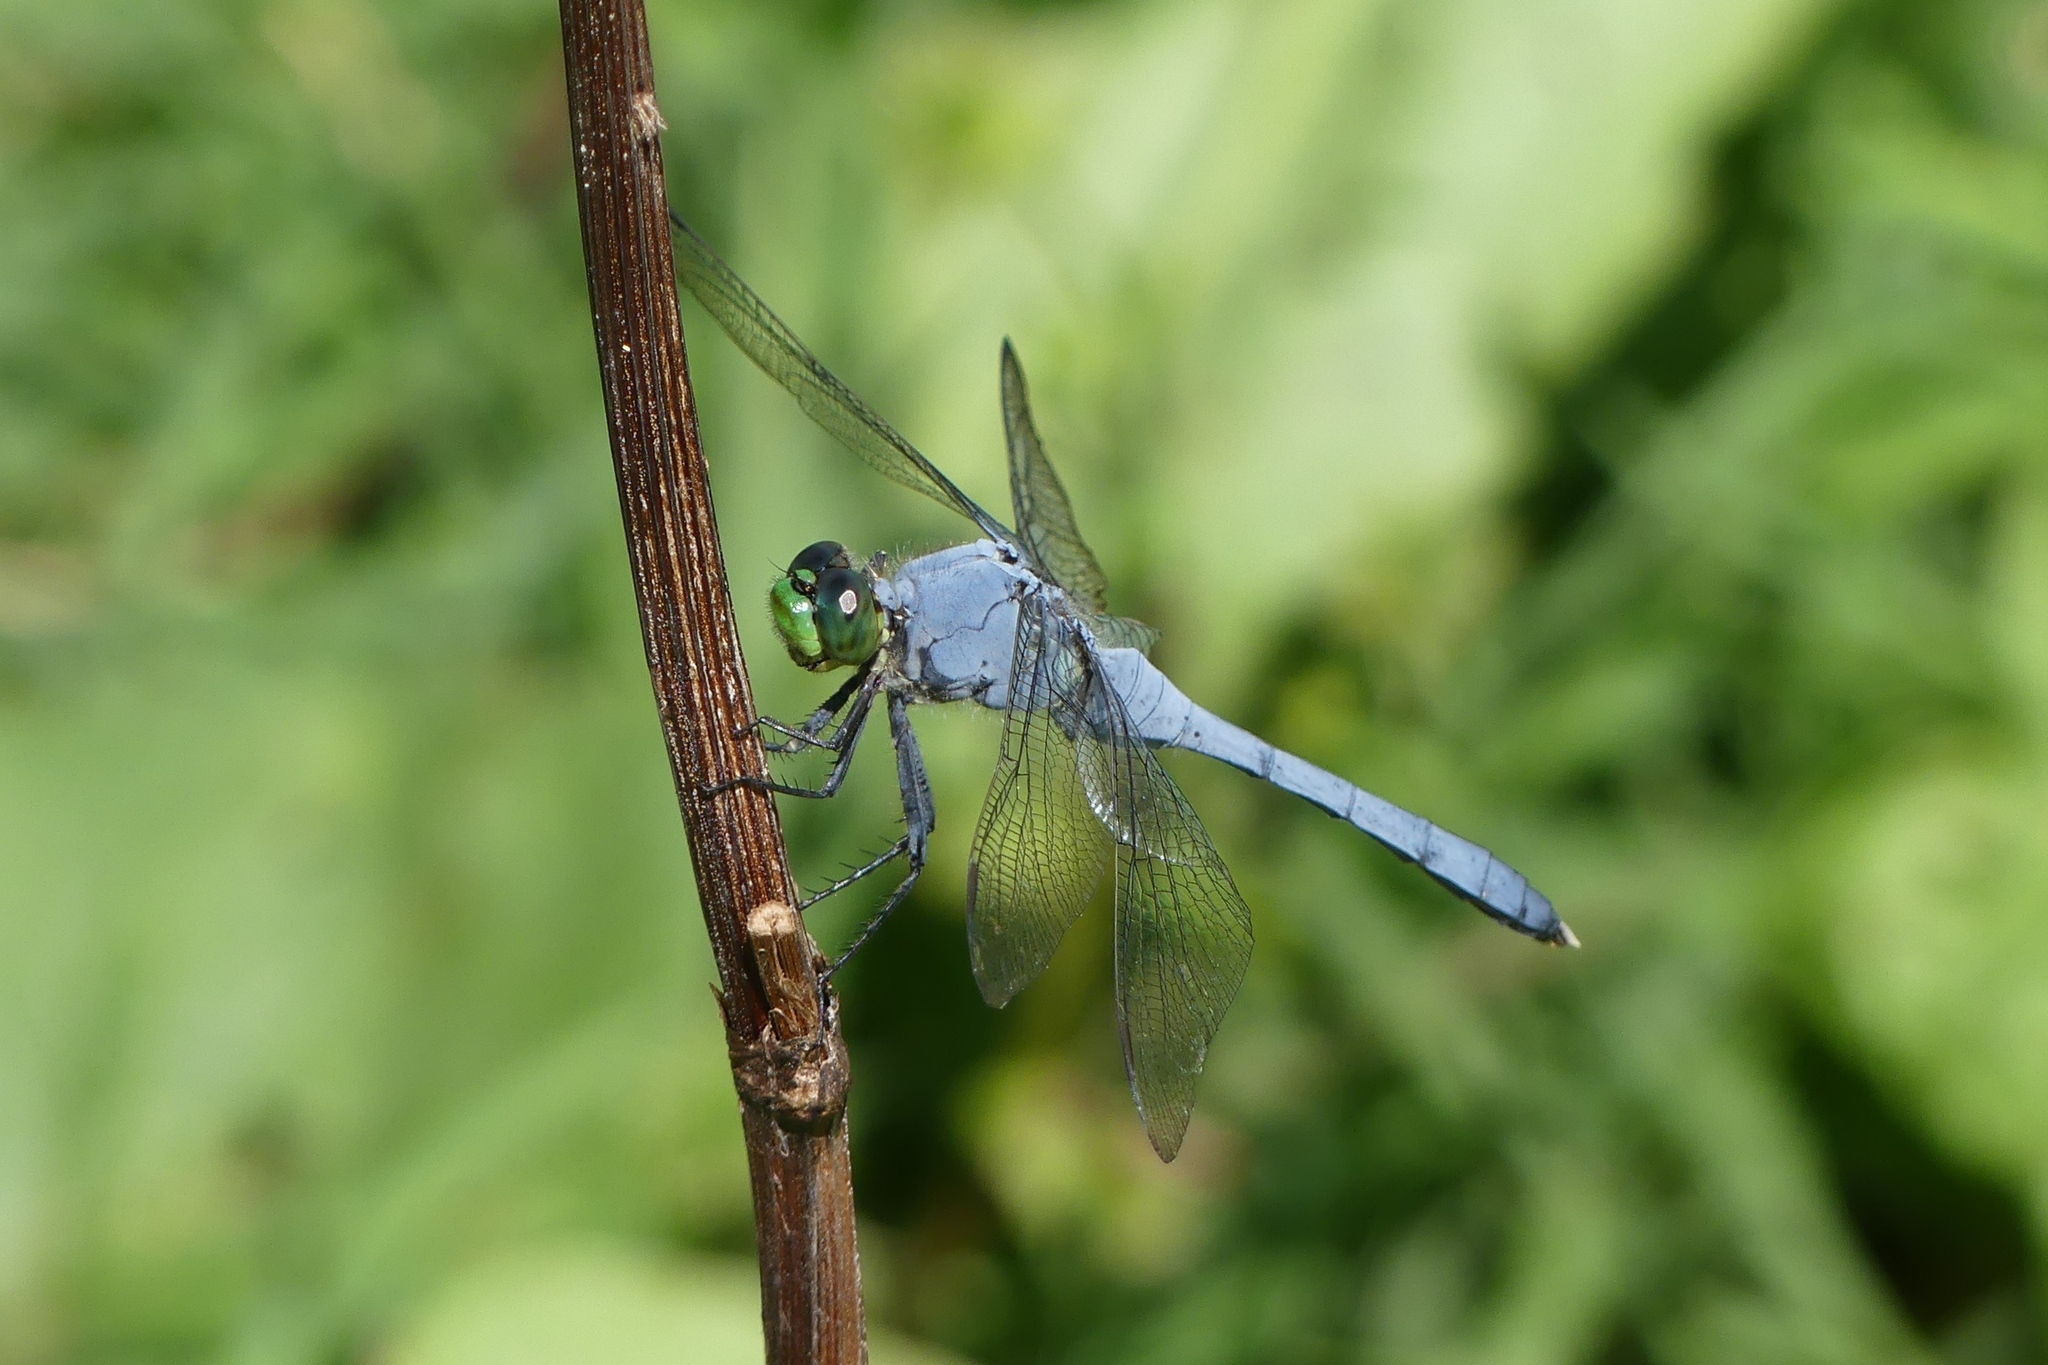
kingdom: Animalia
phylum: Arthropoda
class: Insecta
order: Odonata
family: Libellulidae
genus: Erythemis
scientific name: Erythemis simplicicollis
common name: Eastern pondhawk
